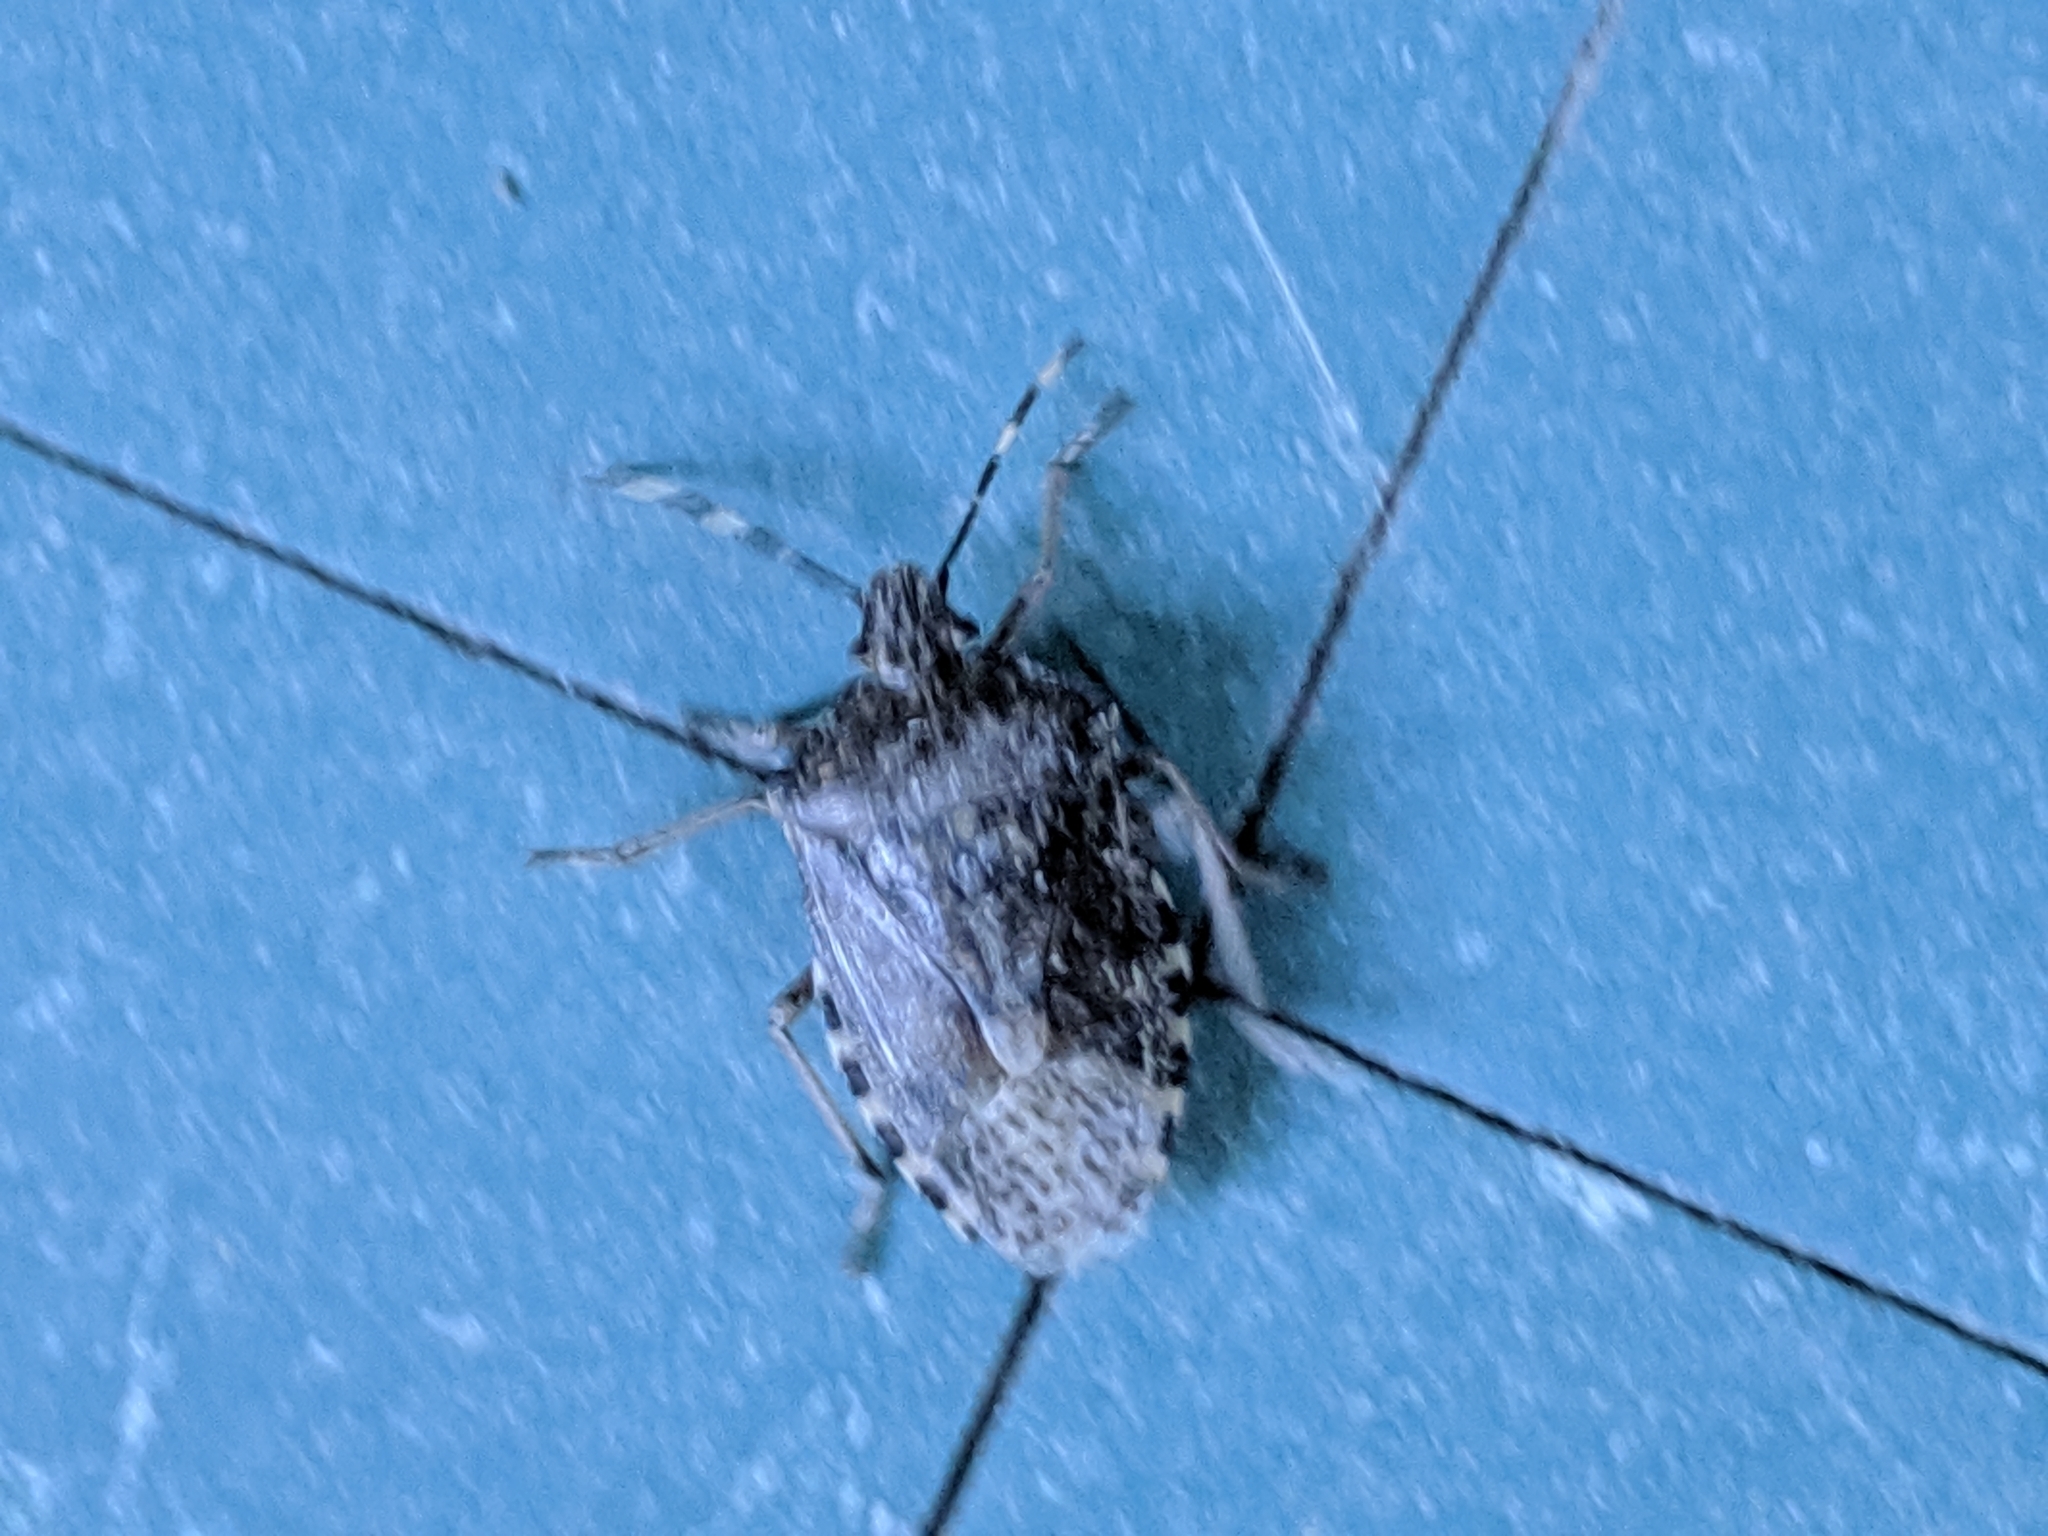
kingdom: Animalia
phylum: Arthropoda
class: Insecta
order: Hemiptera
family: Pentatomidae
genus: Rhaphigaster
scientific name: Rhaphigaster nebulosa
